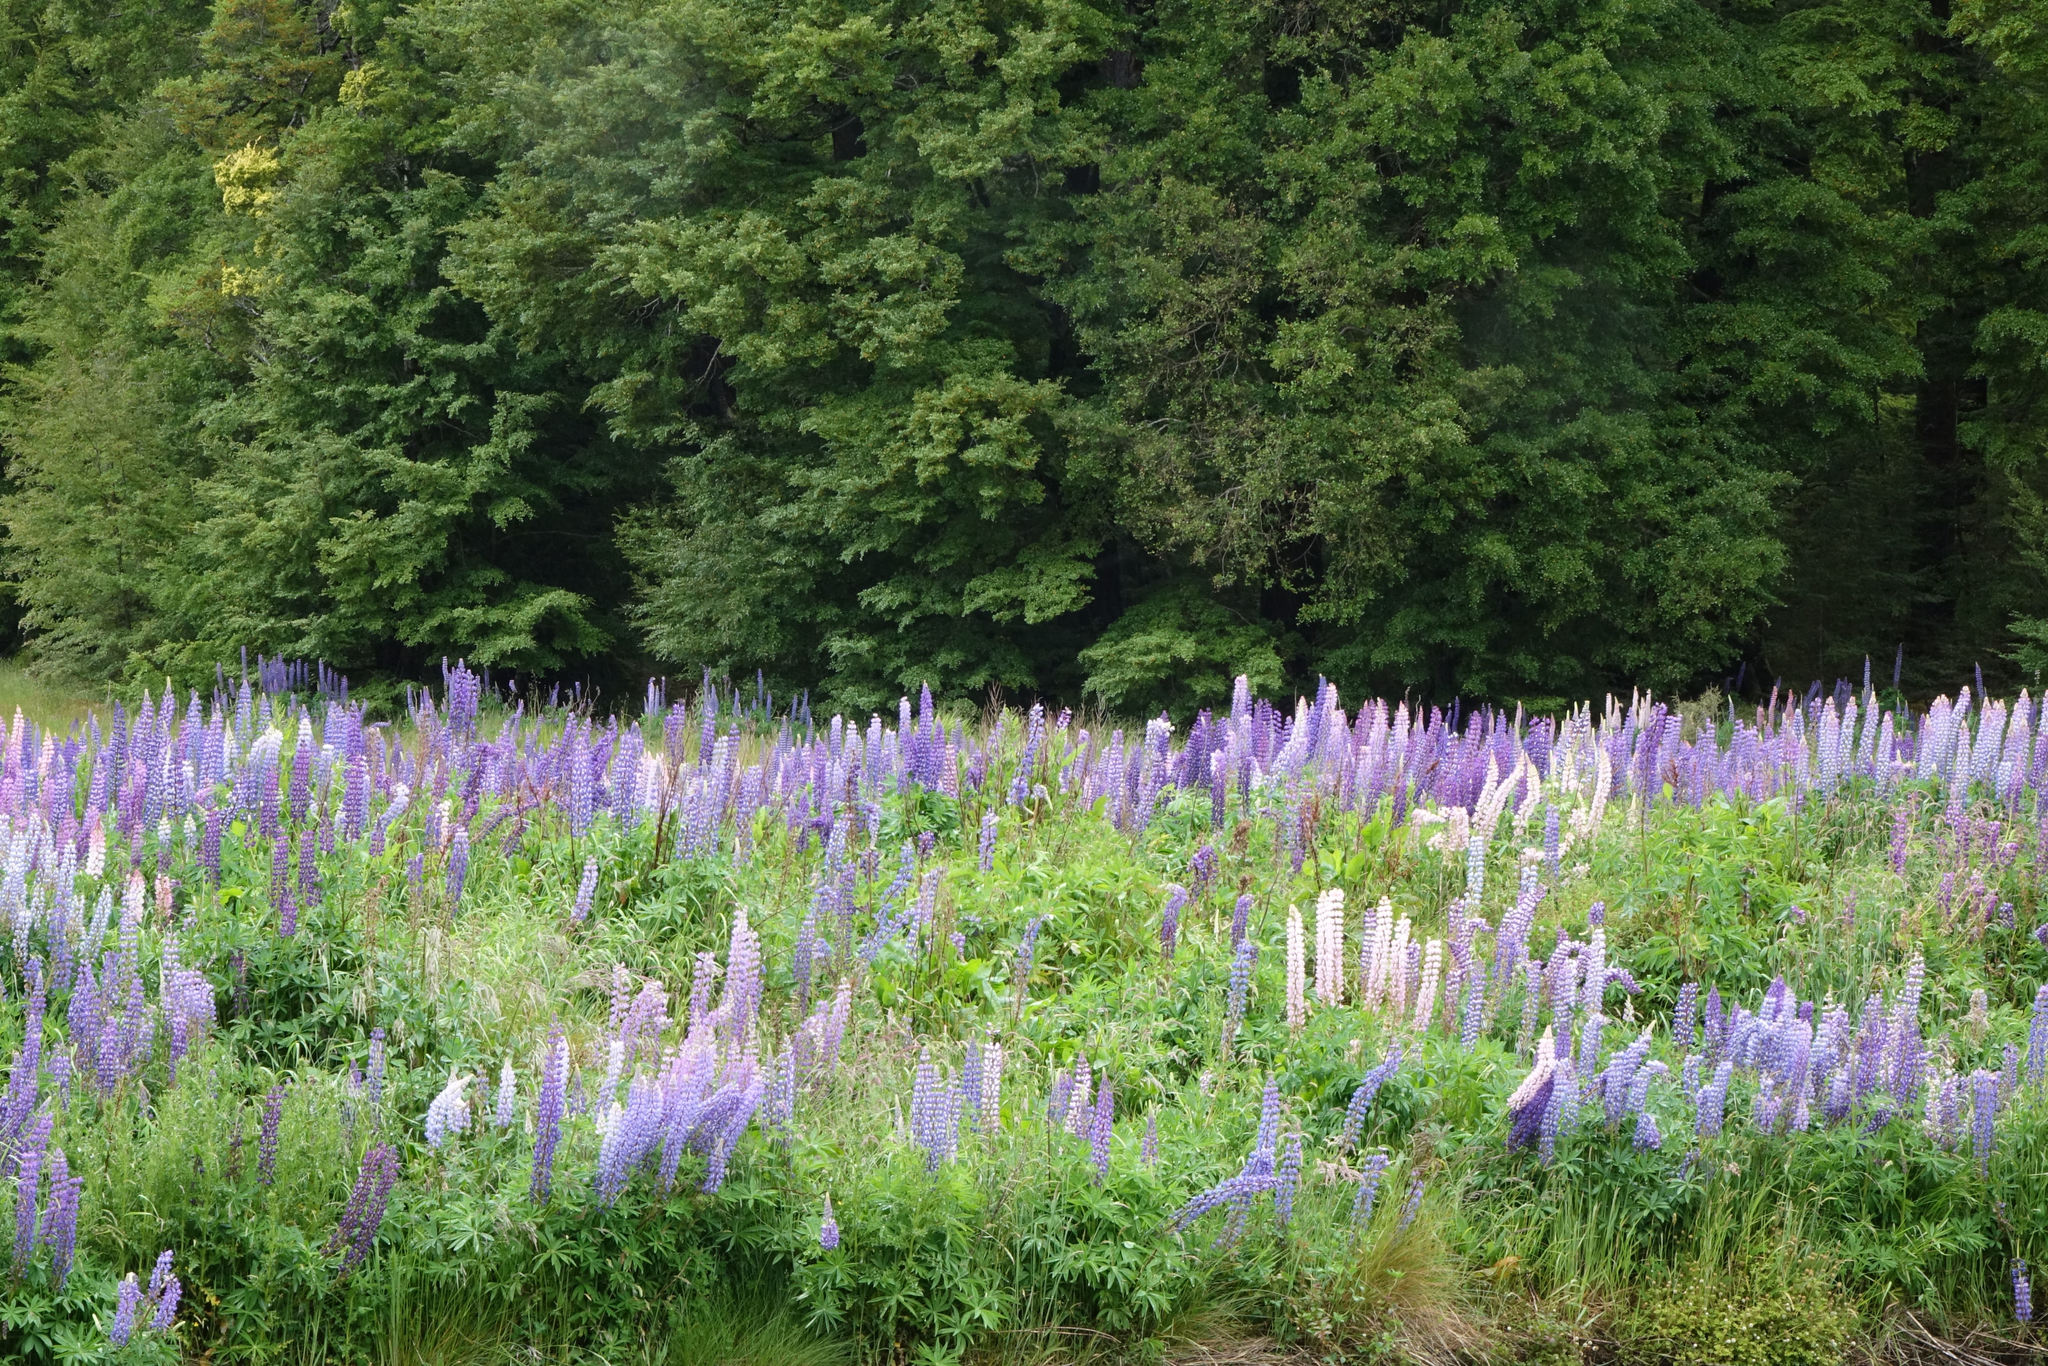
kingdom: Plantae
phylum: Tracheophyta
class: Magnoliopsida
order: Fabales
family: Fabaceae
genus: Lupinus
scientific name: Lupinus polyphyllus
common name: Garden lupin
